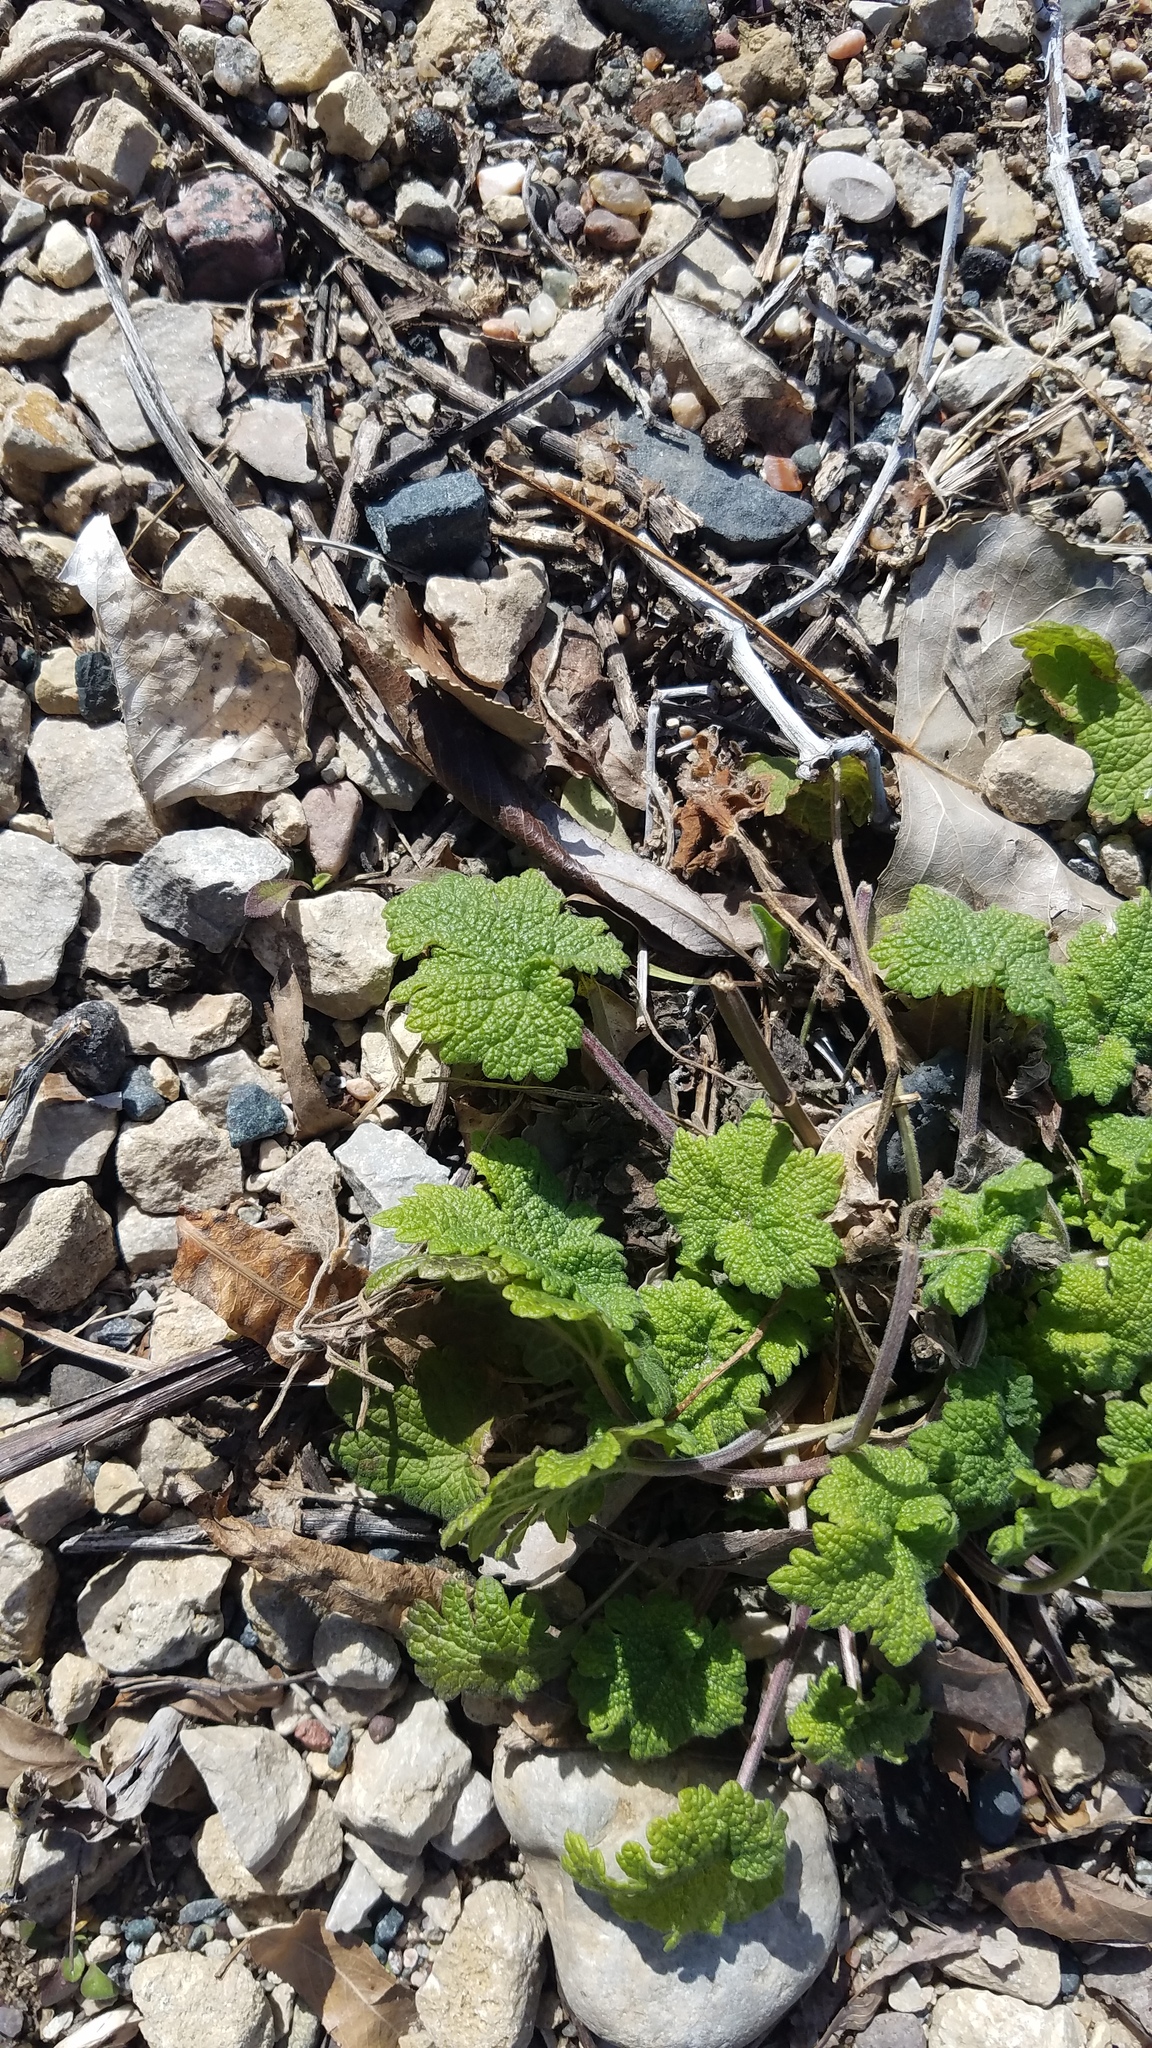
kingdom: Plantae
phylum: Tracheophyta
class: Magnoliopsida
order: Lamiales
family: Lamiaceae
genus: Leonurus
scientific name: Leonurus cardiaca
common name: Motherwort
